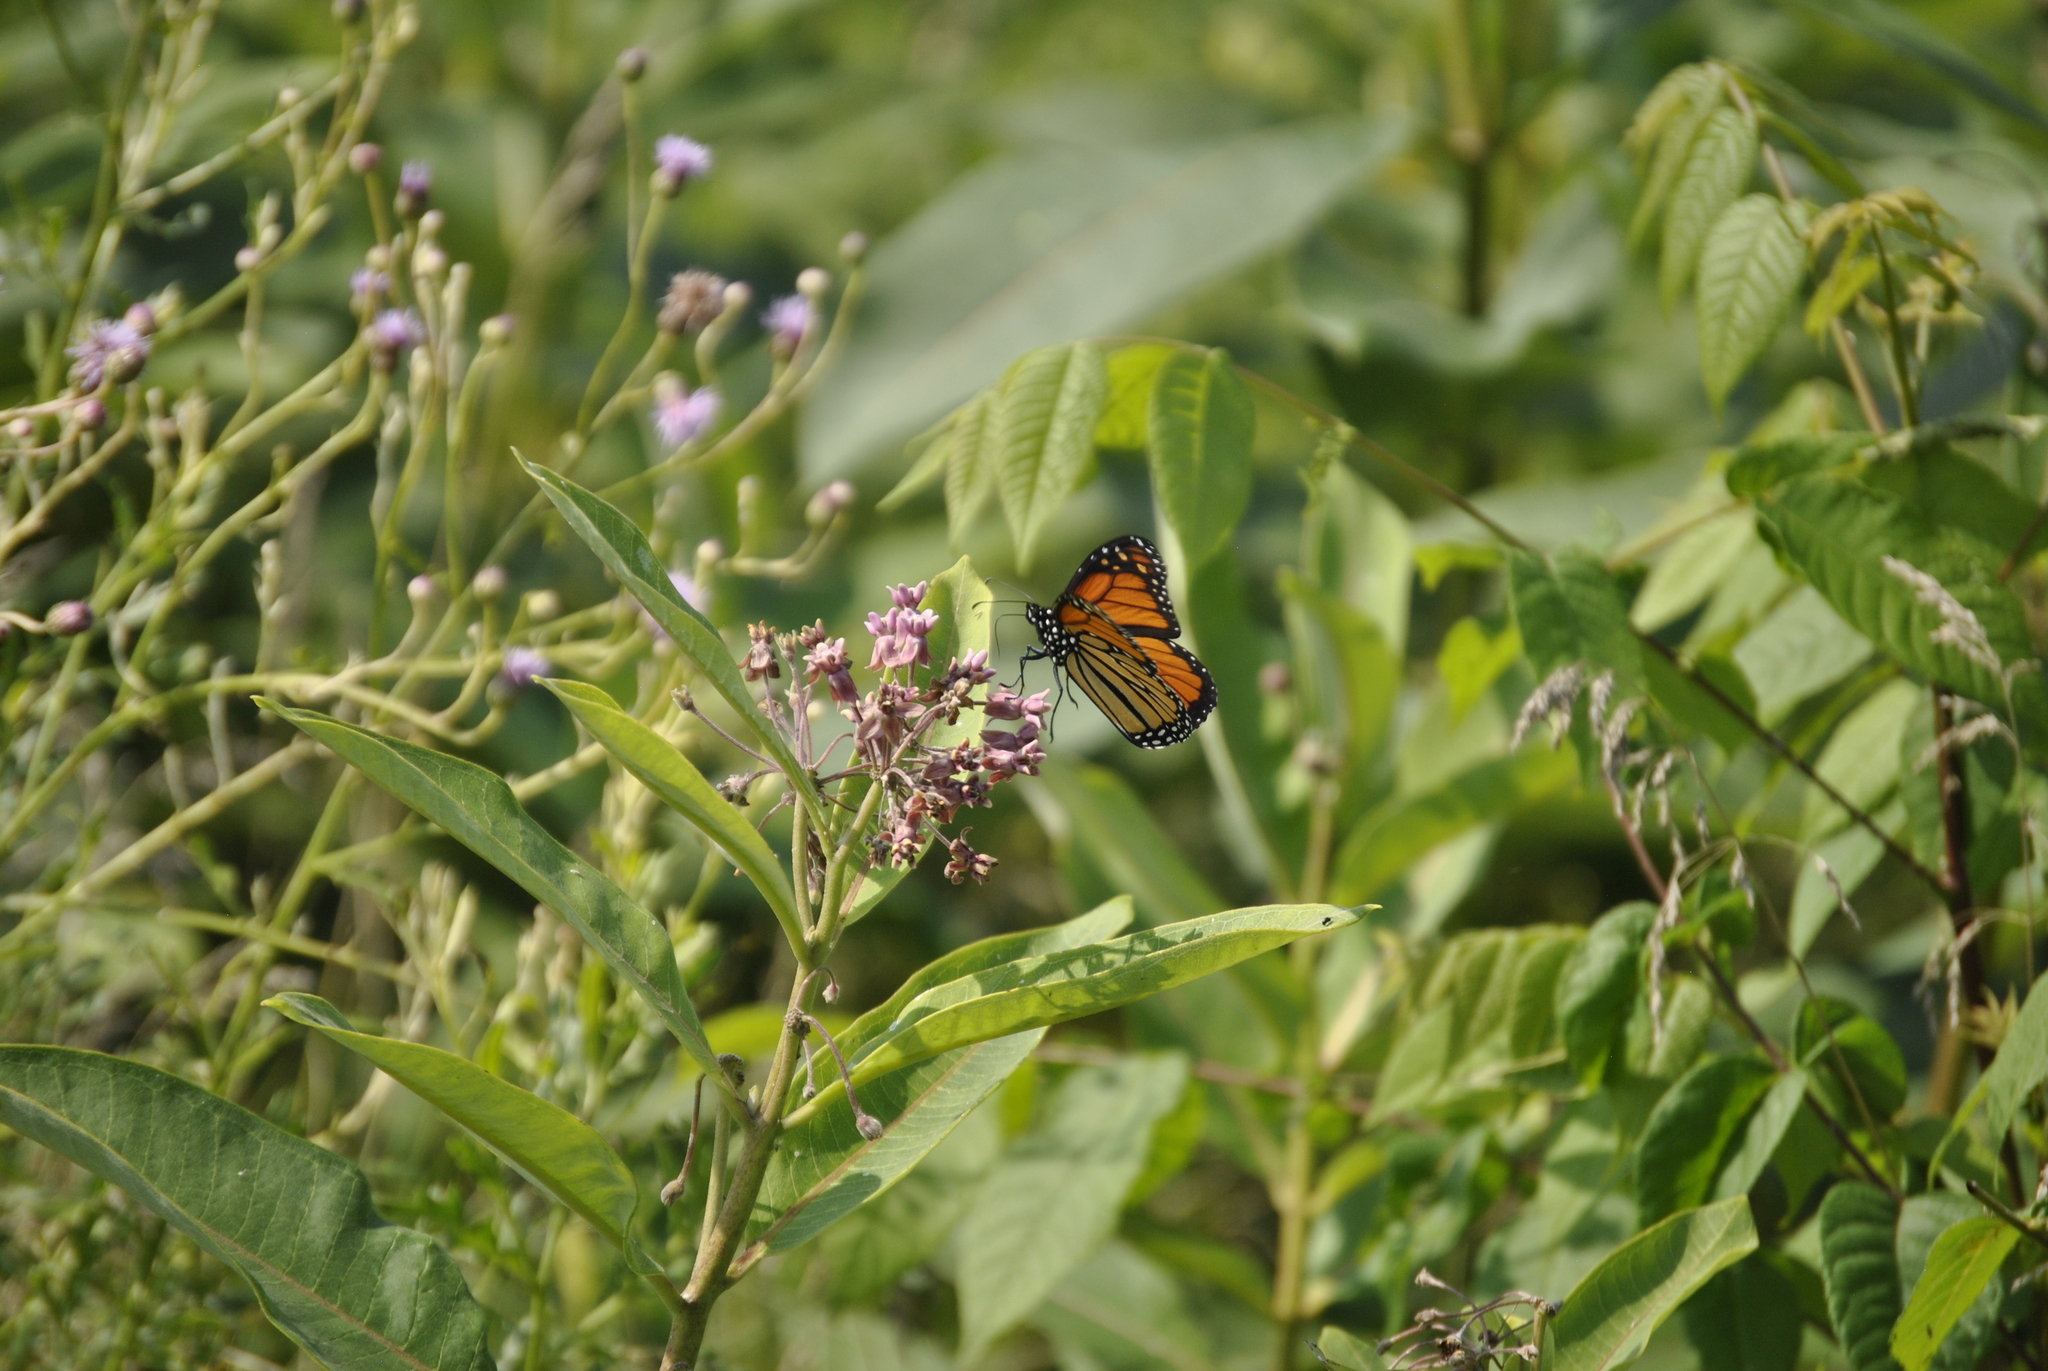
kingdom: Plantae
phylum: Tracheophyta
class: Magnoliopsida
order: Gentianales
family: Apocynaceae
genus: Asclepias
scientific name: Asclepias syriaca
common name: Common milkweed
